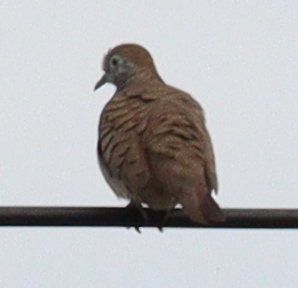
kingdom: Animalia
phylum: Chordata
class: Aves
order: Columbiformes
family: Columbidae
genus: Geopelia
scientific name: Geopelia striata
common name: Zebra dove
